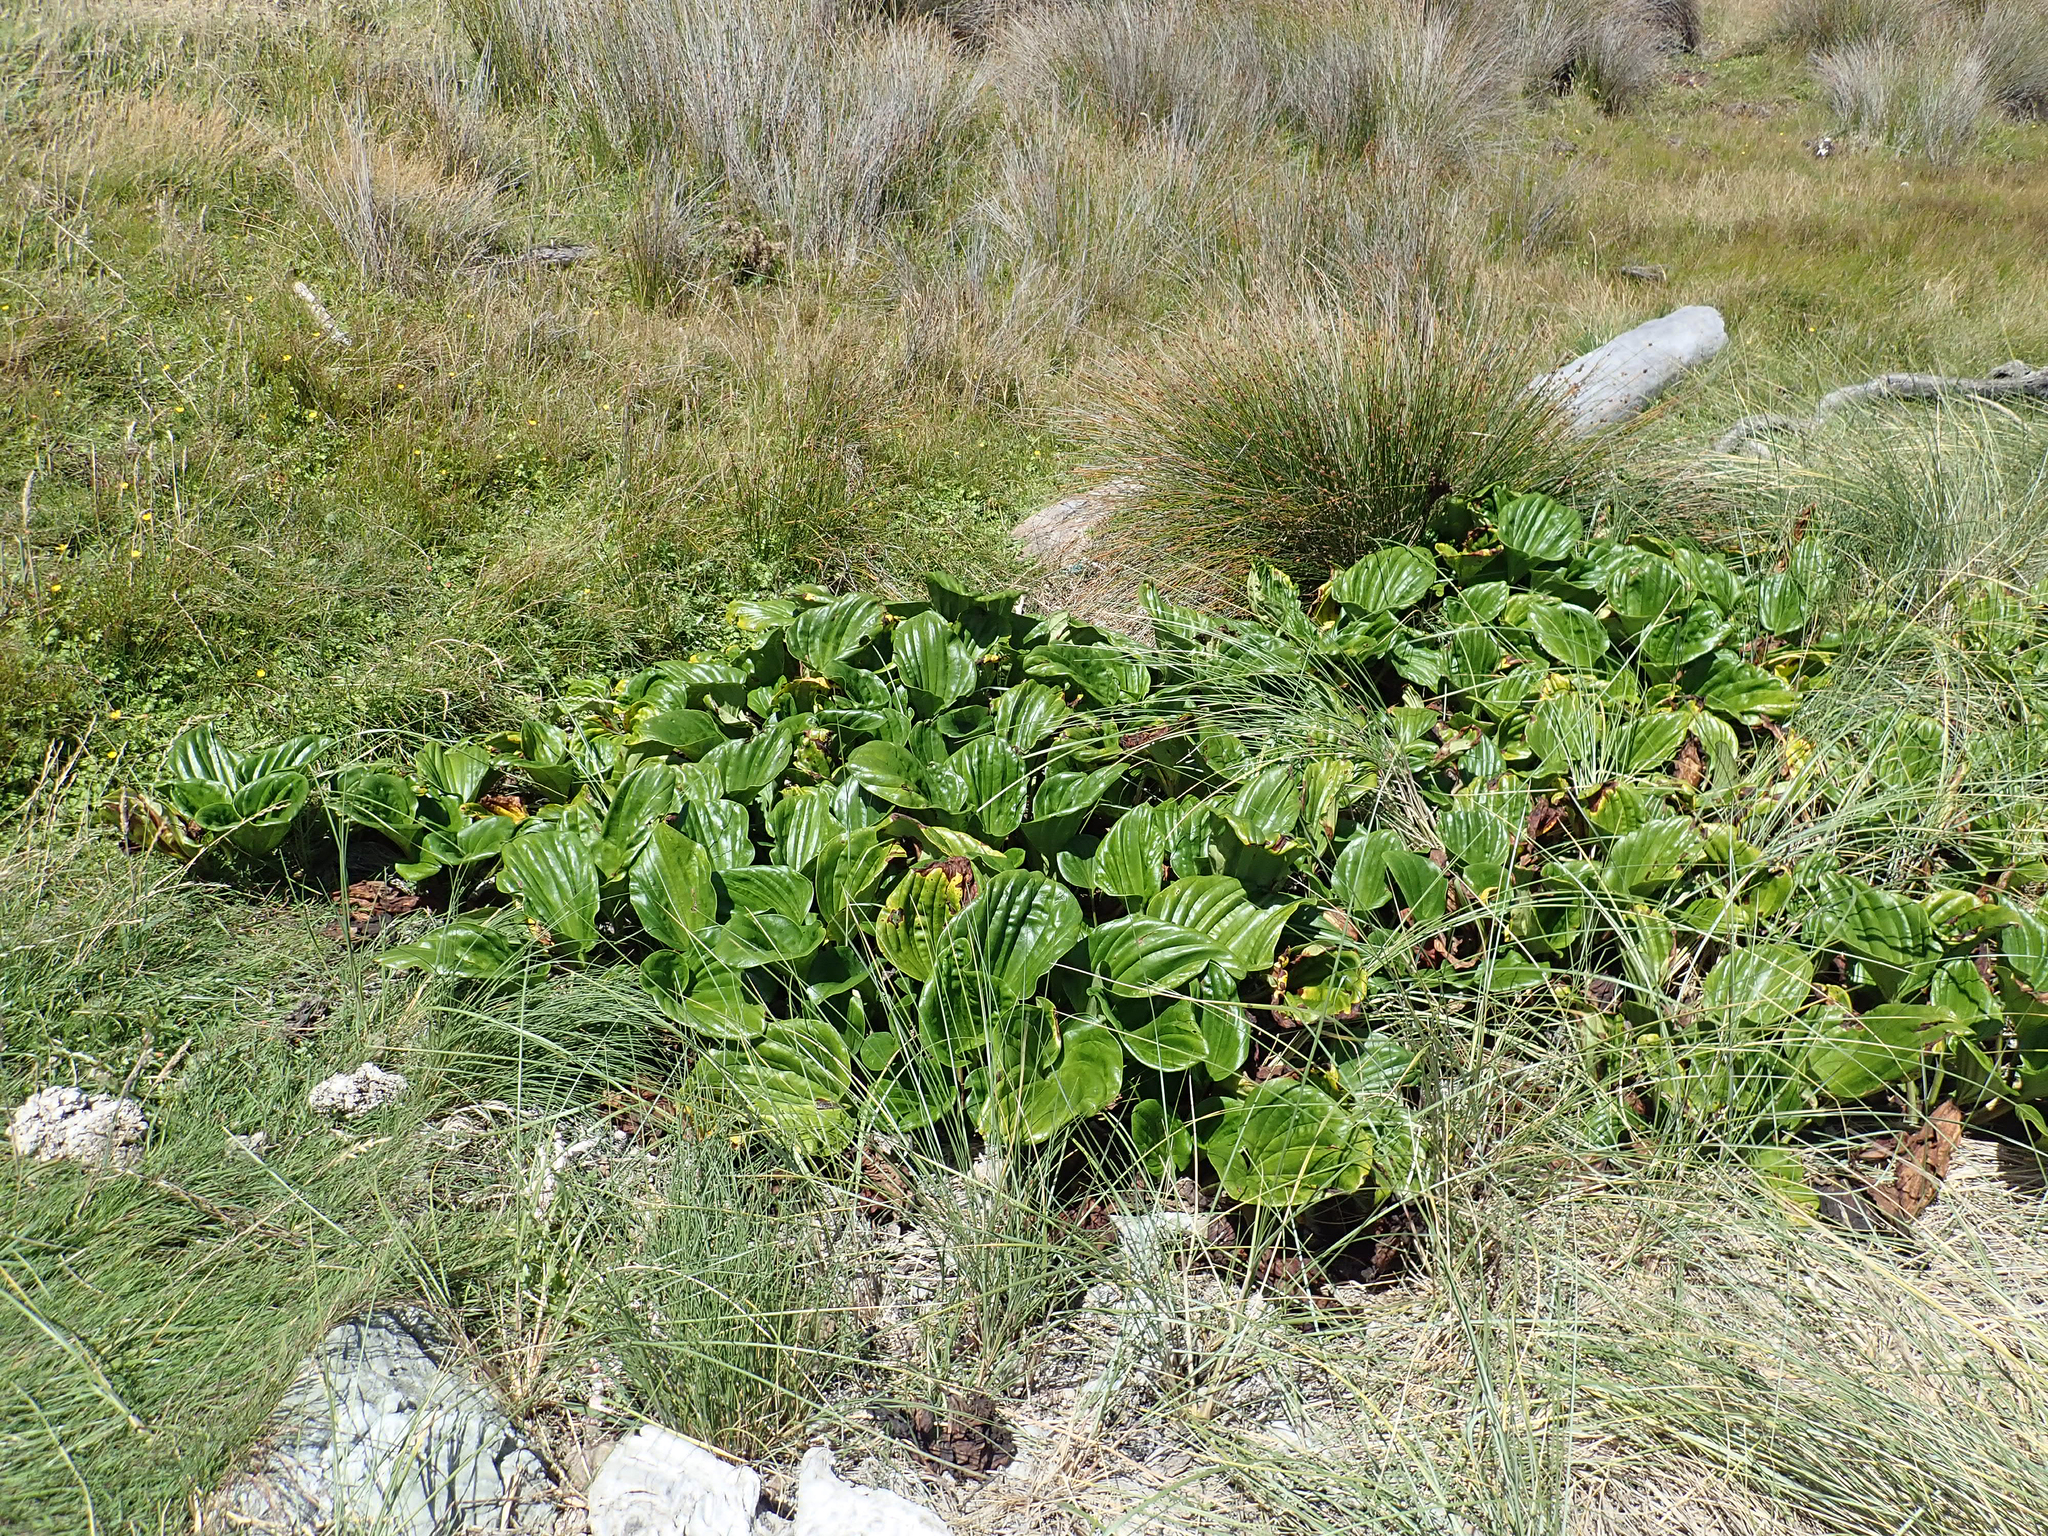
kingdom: Plantae
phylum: Tracheophyta
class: Magnoliopsida
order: Boraginales
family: Boraginaceae
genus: Myosotidium
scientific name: Myosotidium hortensia
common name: Giant forget-me-not
